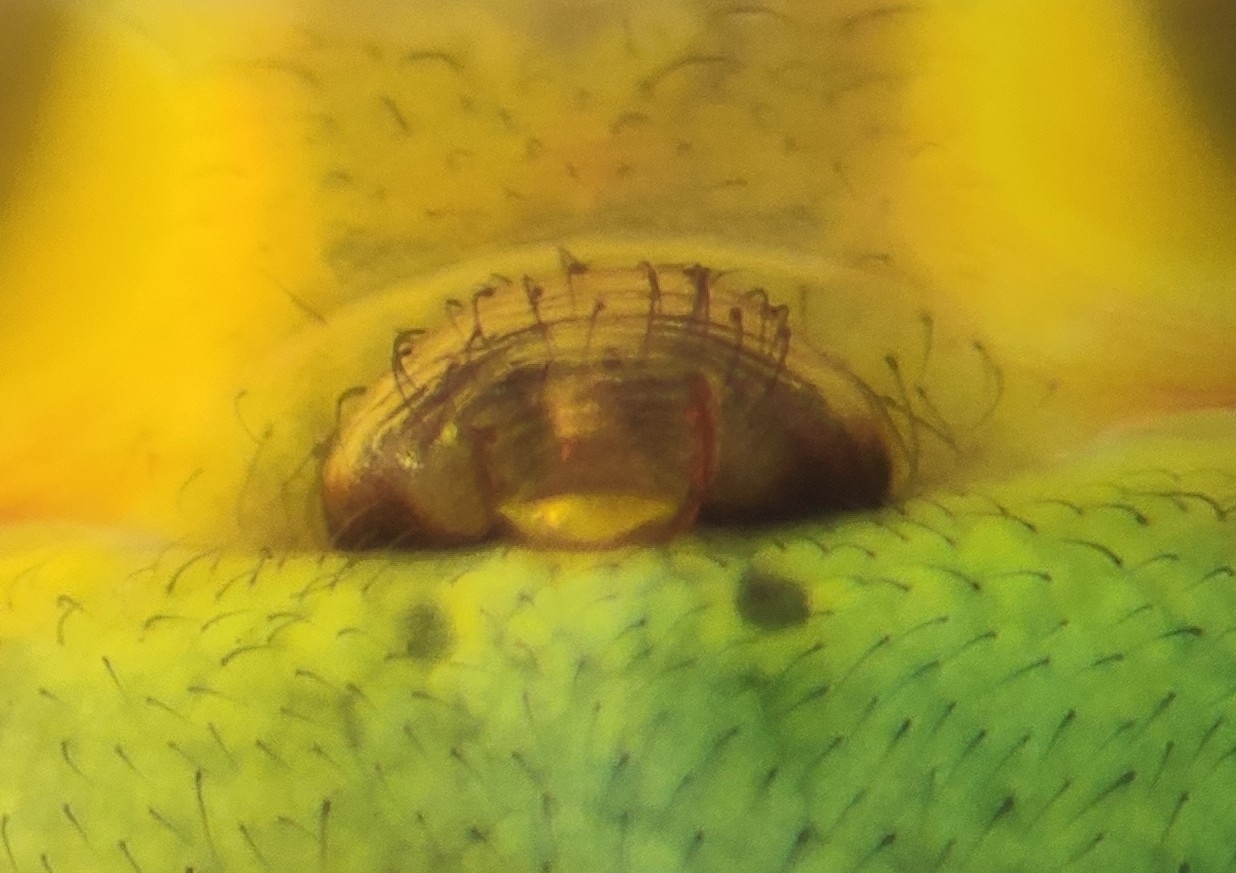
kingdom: Animalia
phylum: Arthropoda
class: Arachnida
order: Araneae
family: Araneidae
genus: Araniella
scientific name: Araniella cucurbitina
